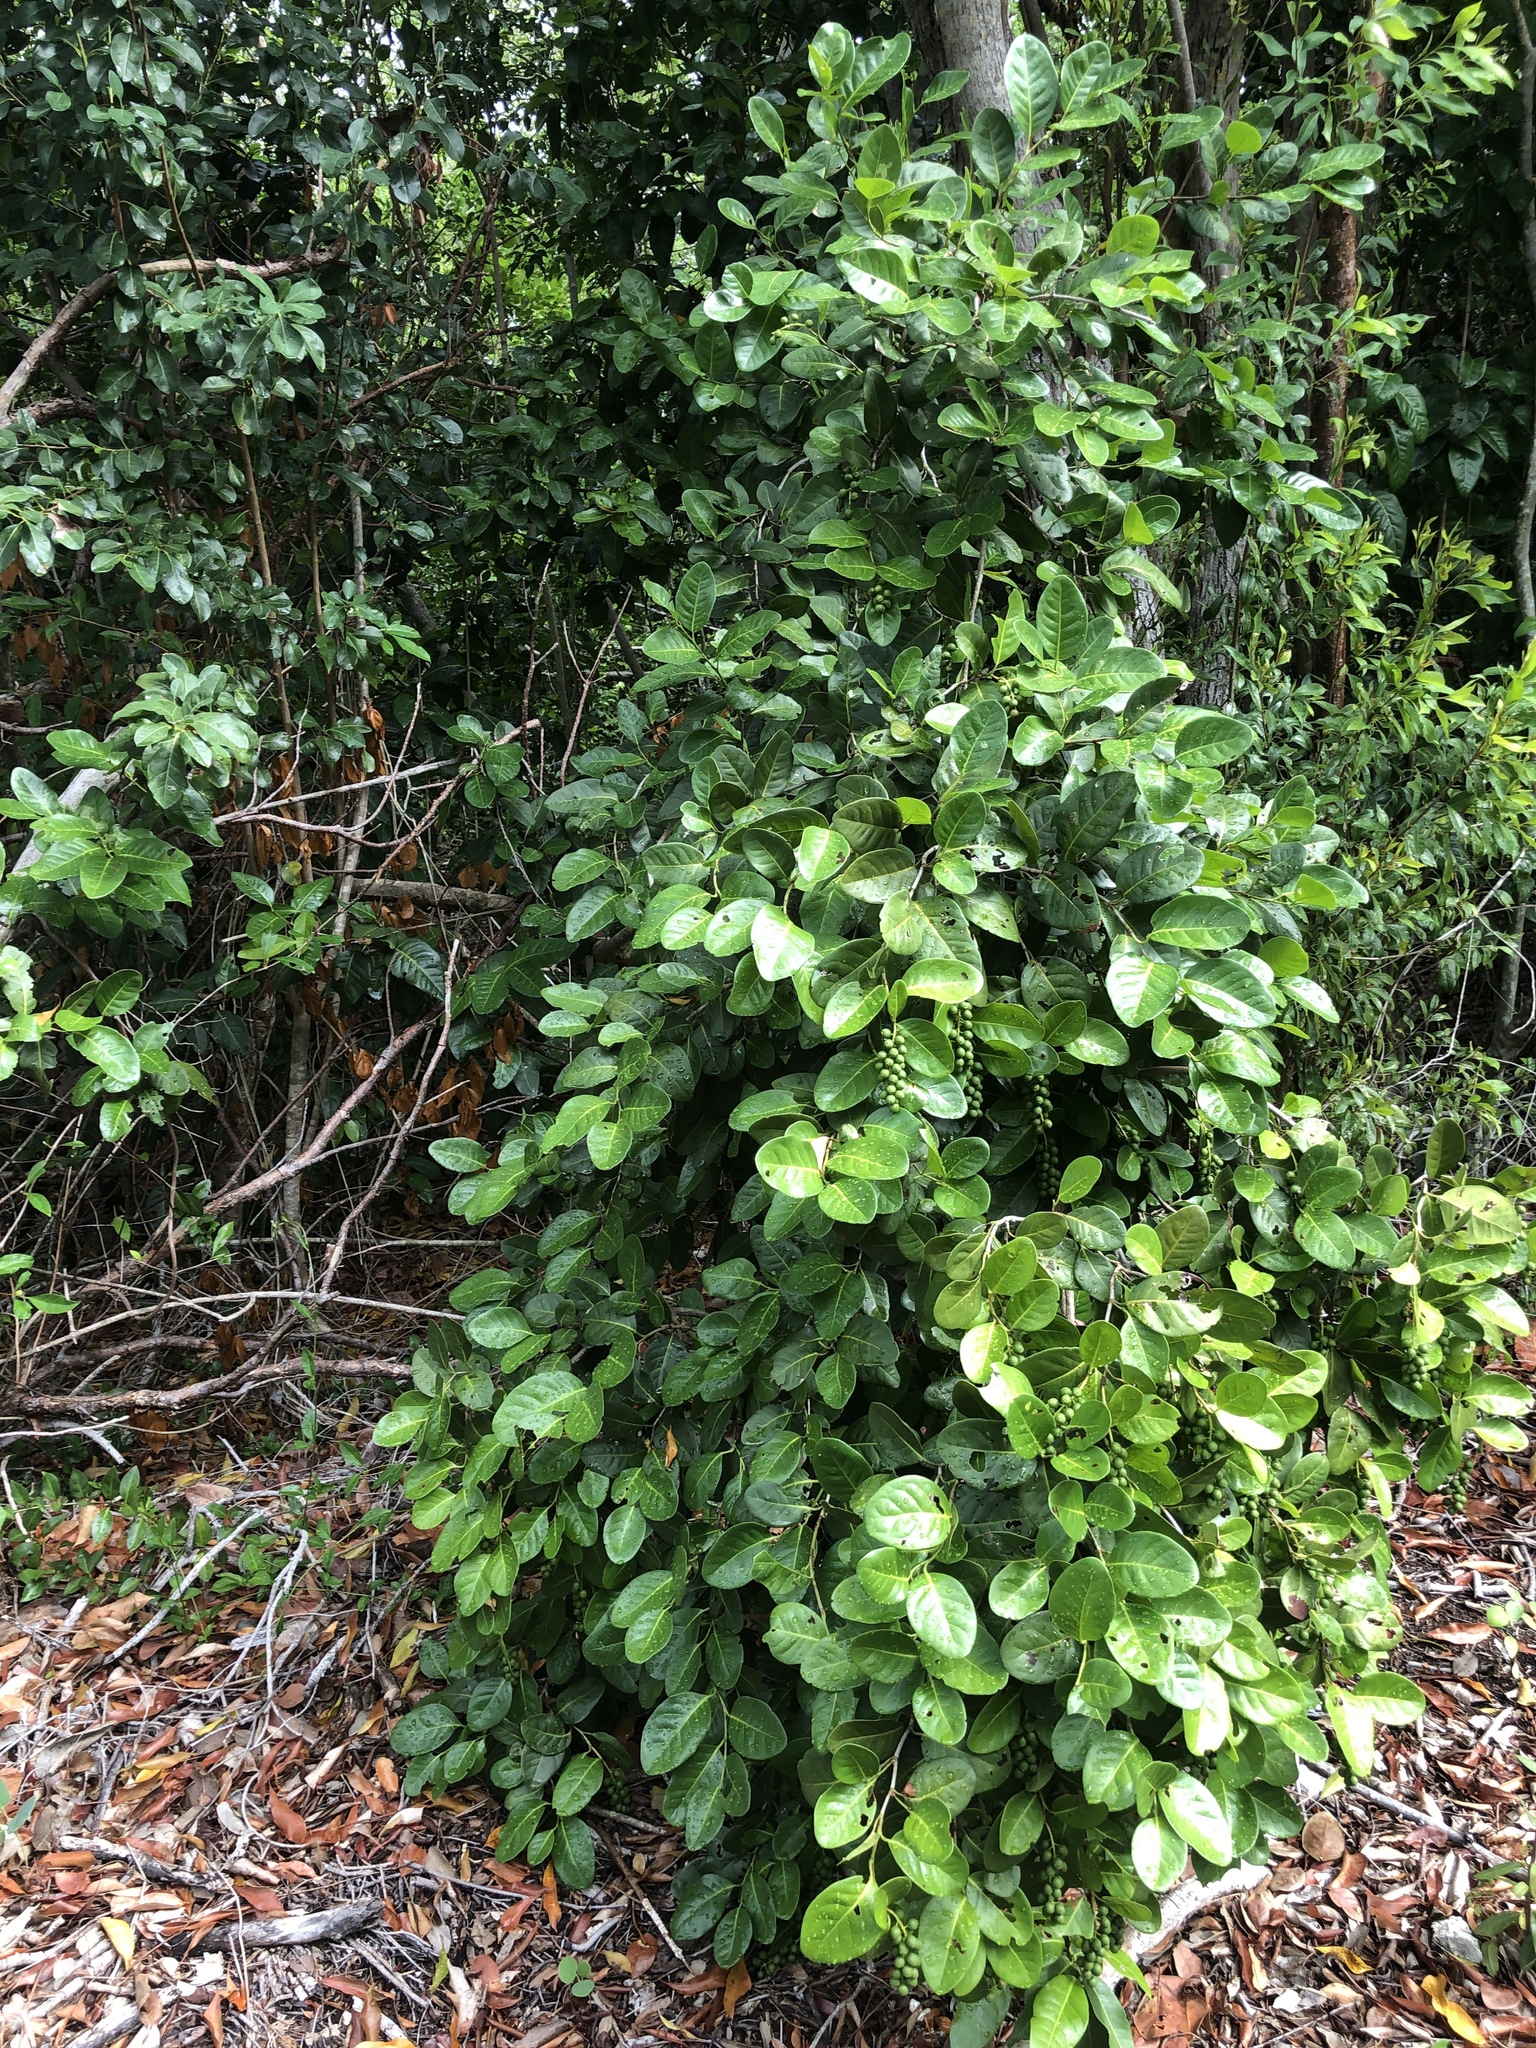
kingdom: Plantae
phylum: Tracheophyta
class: Magnoliopsida
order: Caryophyllales
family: Polygonaceae
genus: Coccoloba
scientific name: Coccoloba diversifolia
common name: Pigeon-plum
